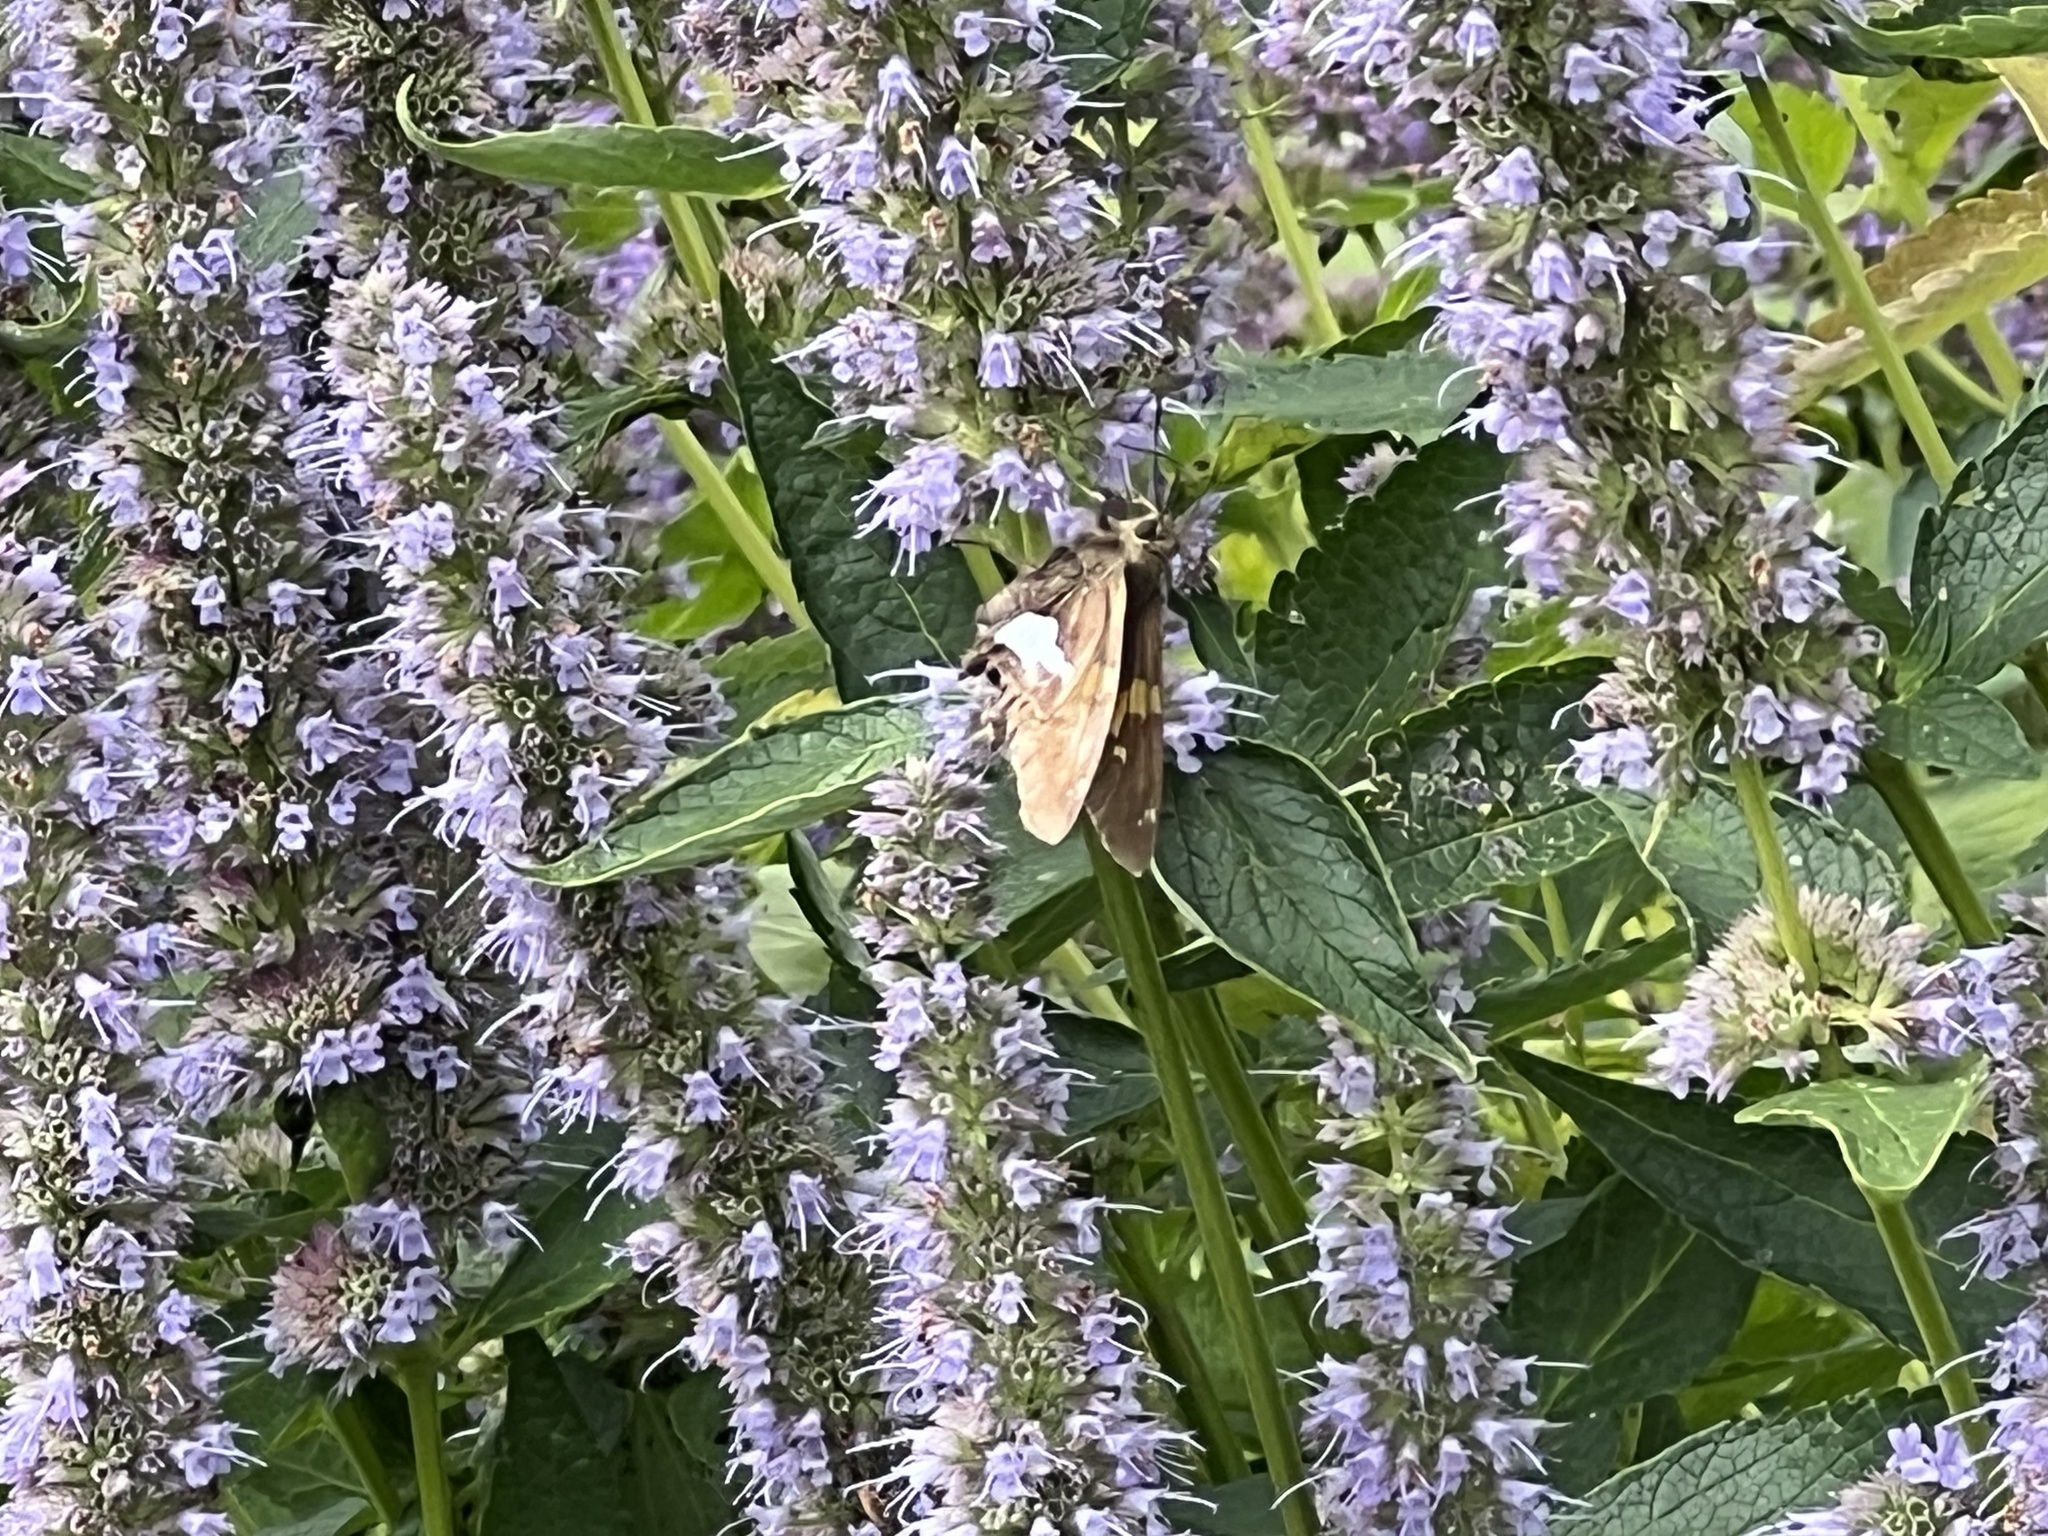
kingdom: Animalia
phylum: Arthropoda
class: Insecta
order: Lepidoptera
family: Hesperiidae
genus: Epargyreus
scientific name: Epargyreus clarus
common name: Silver-spotted skipper
